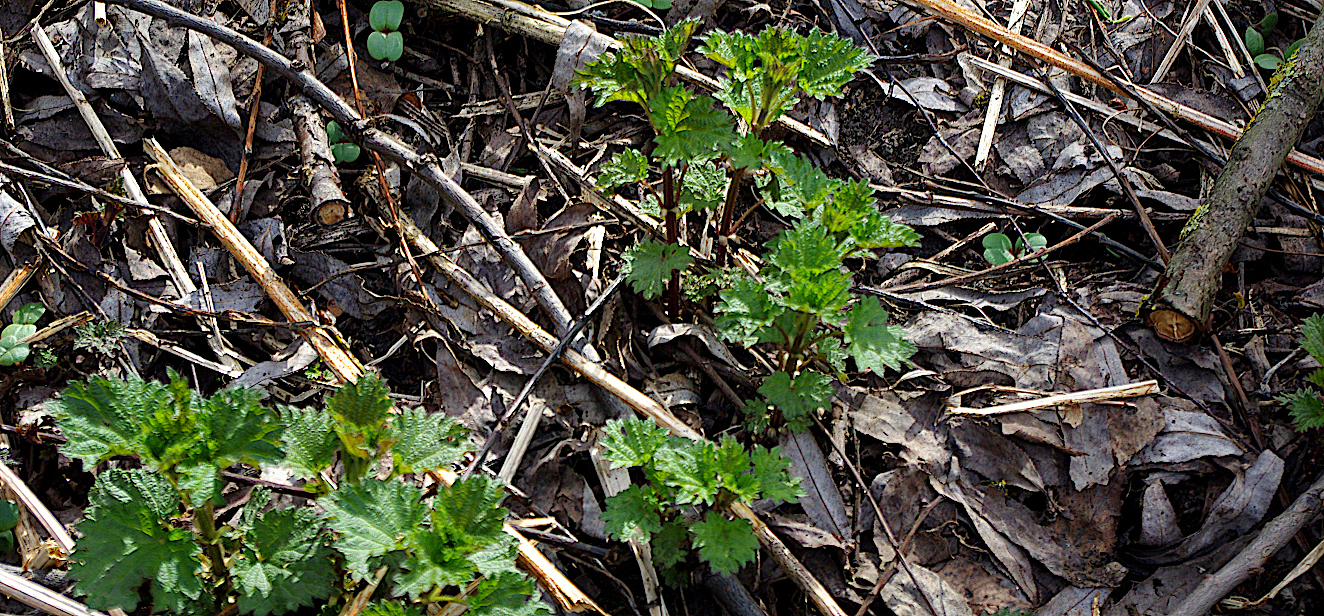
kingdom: Plantae
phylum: Tracheophyta
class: Magnoliopsida
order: Rosales
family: Urticaceae
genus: Urtica
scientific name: Urtica dioica
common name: Common nettle
